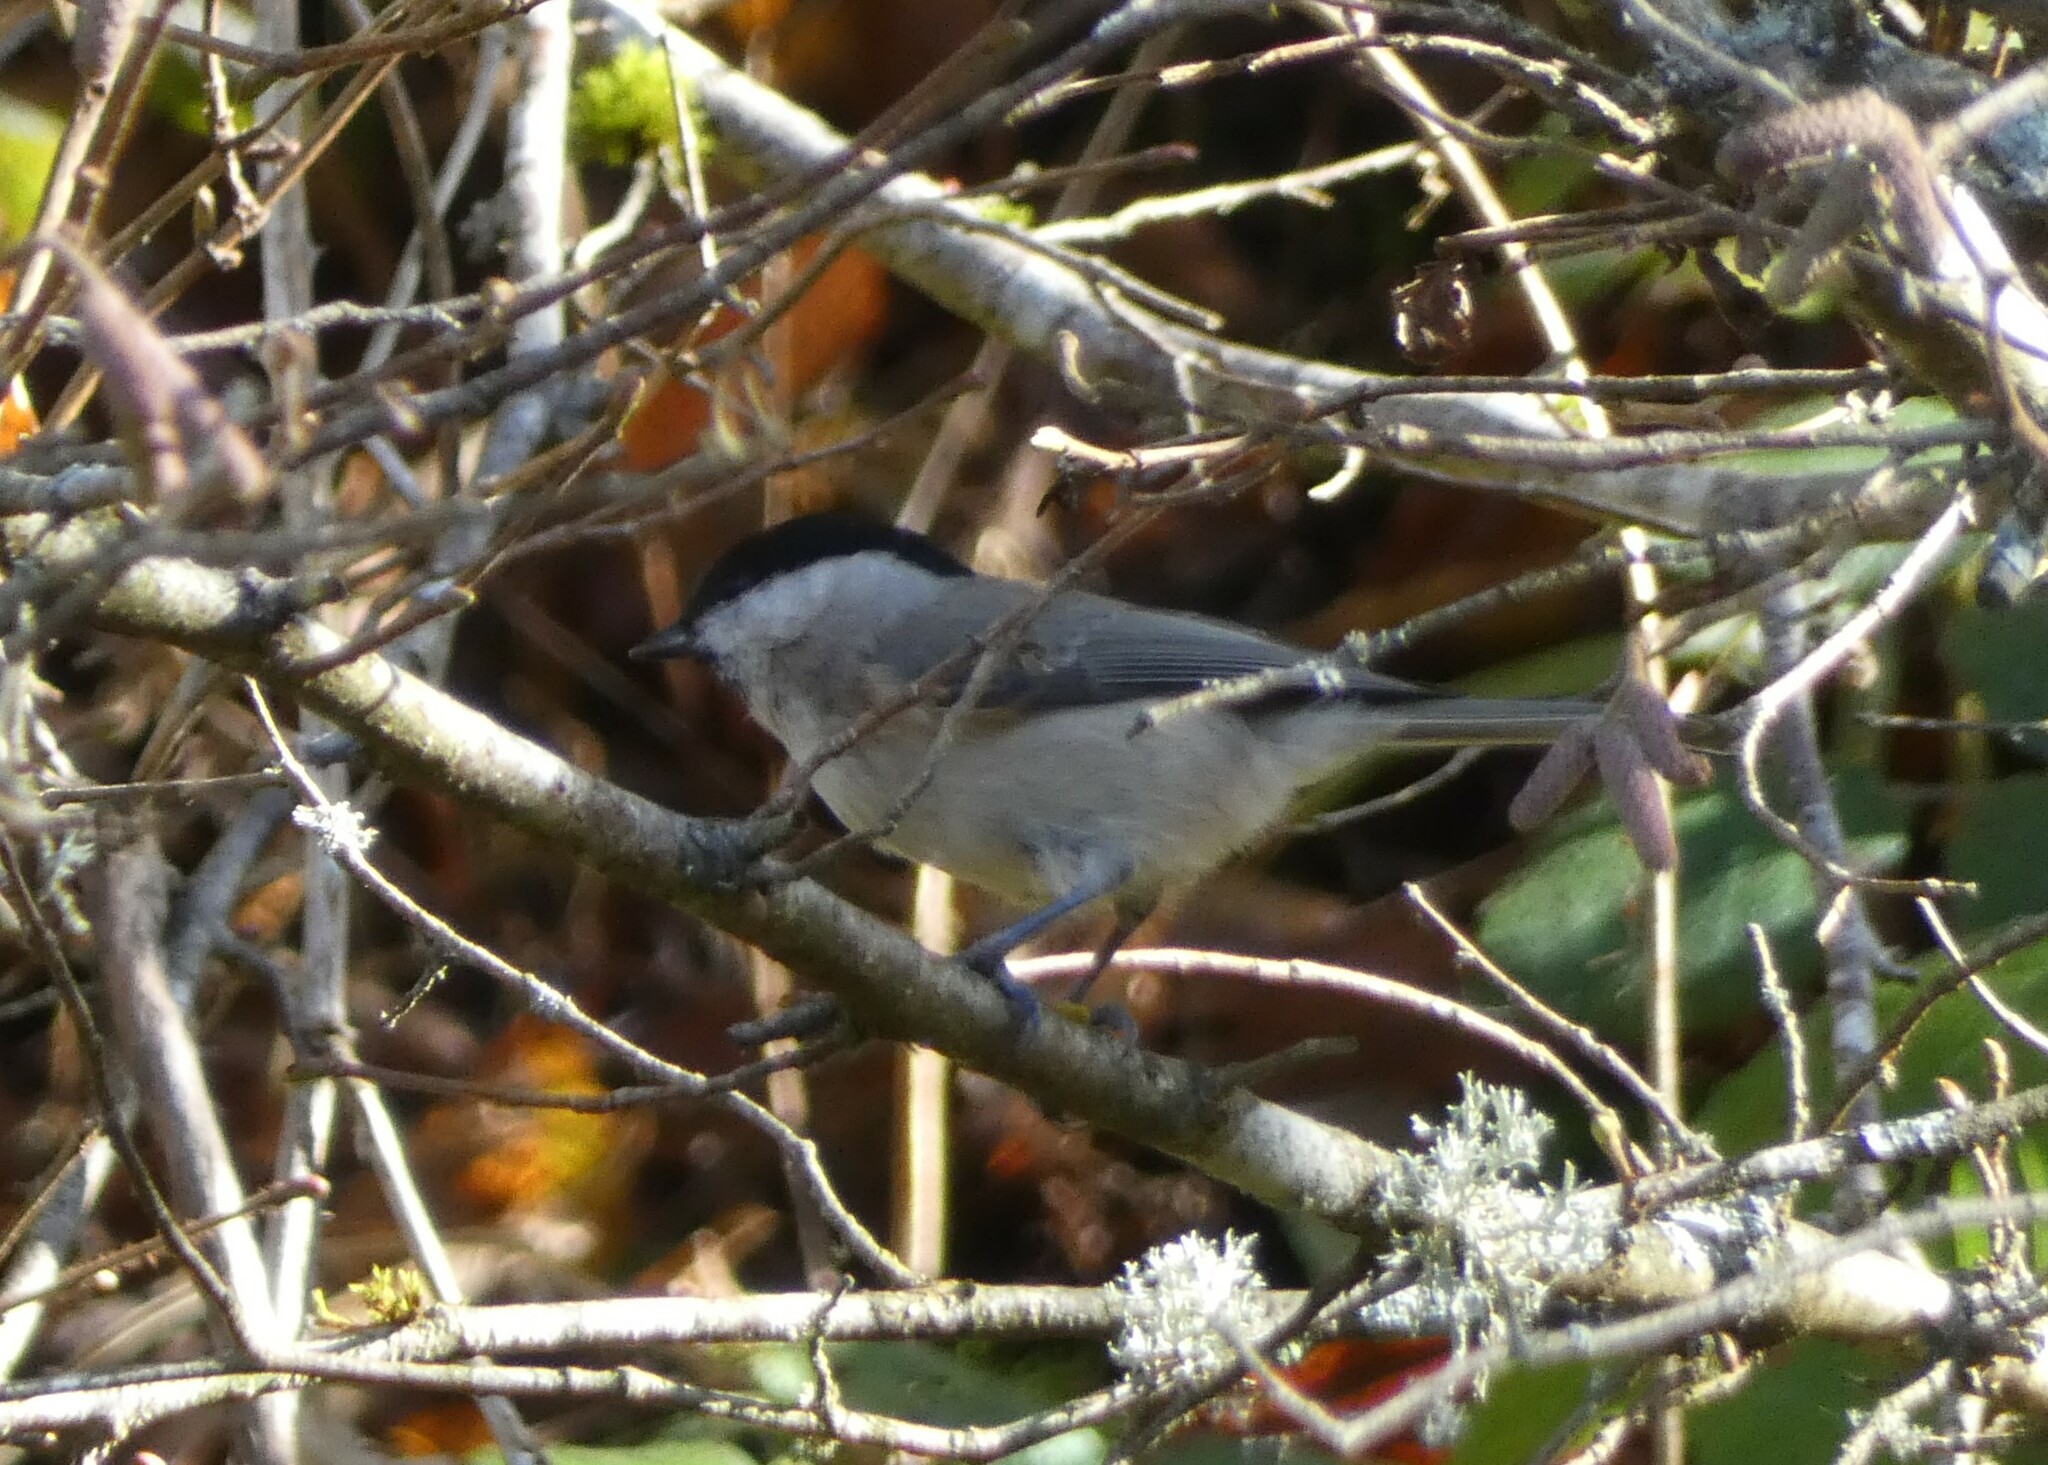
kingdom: Animalia
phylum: Chordata
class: Aves
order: Passeriformes
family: Paridae
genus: Poecile
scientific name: Poecile palustris
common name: Marsh tit
